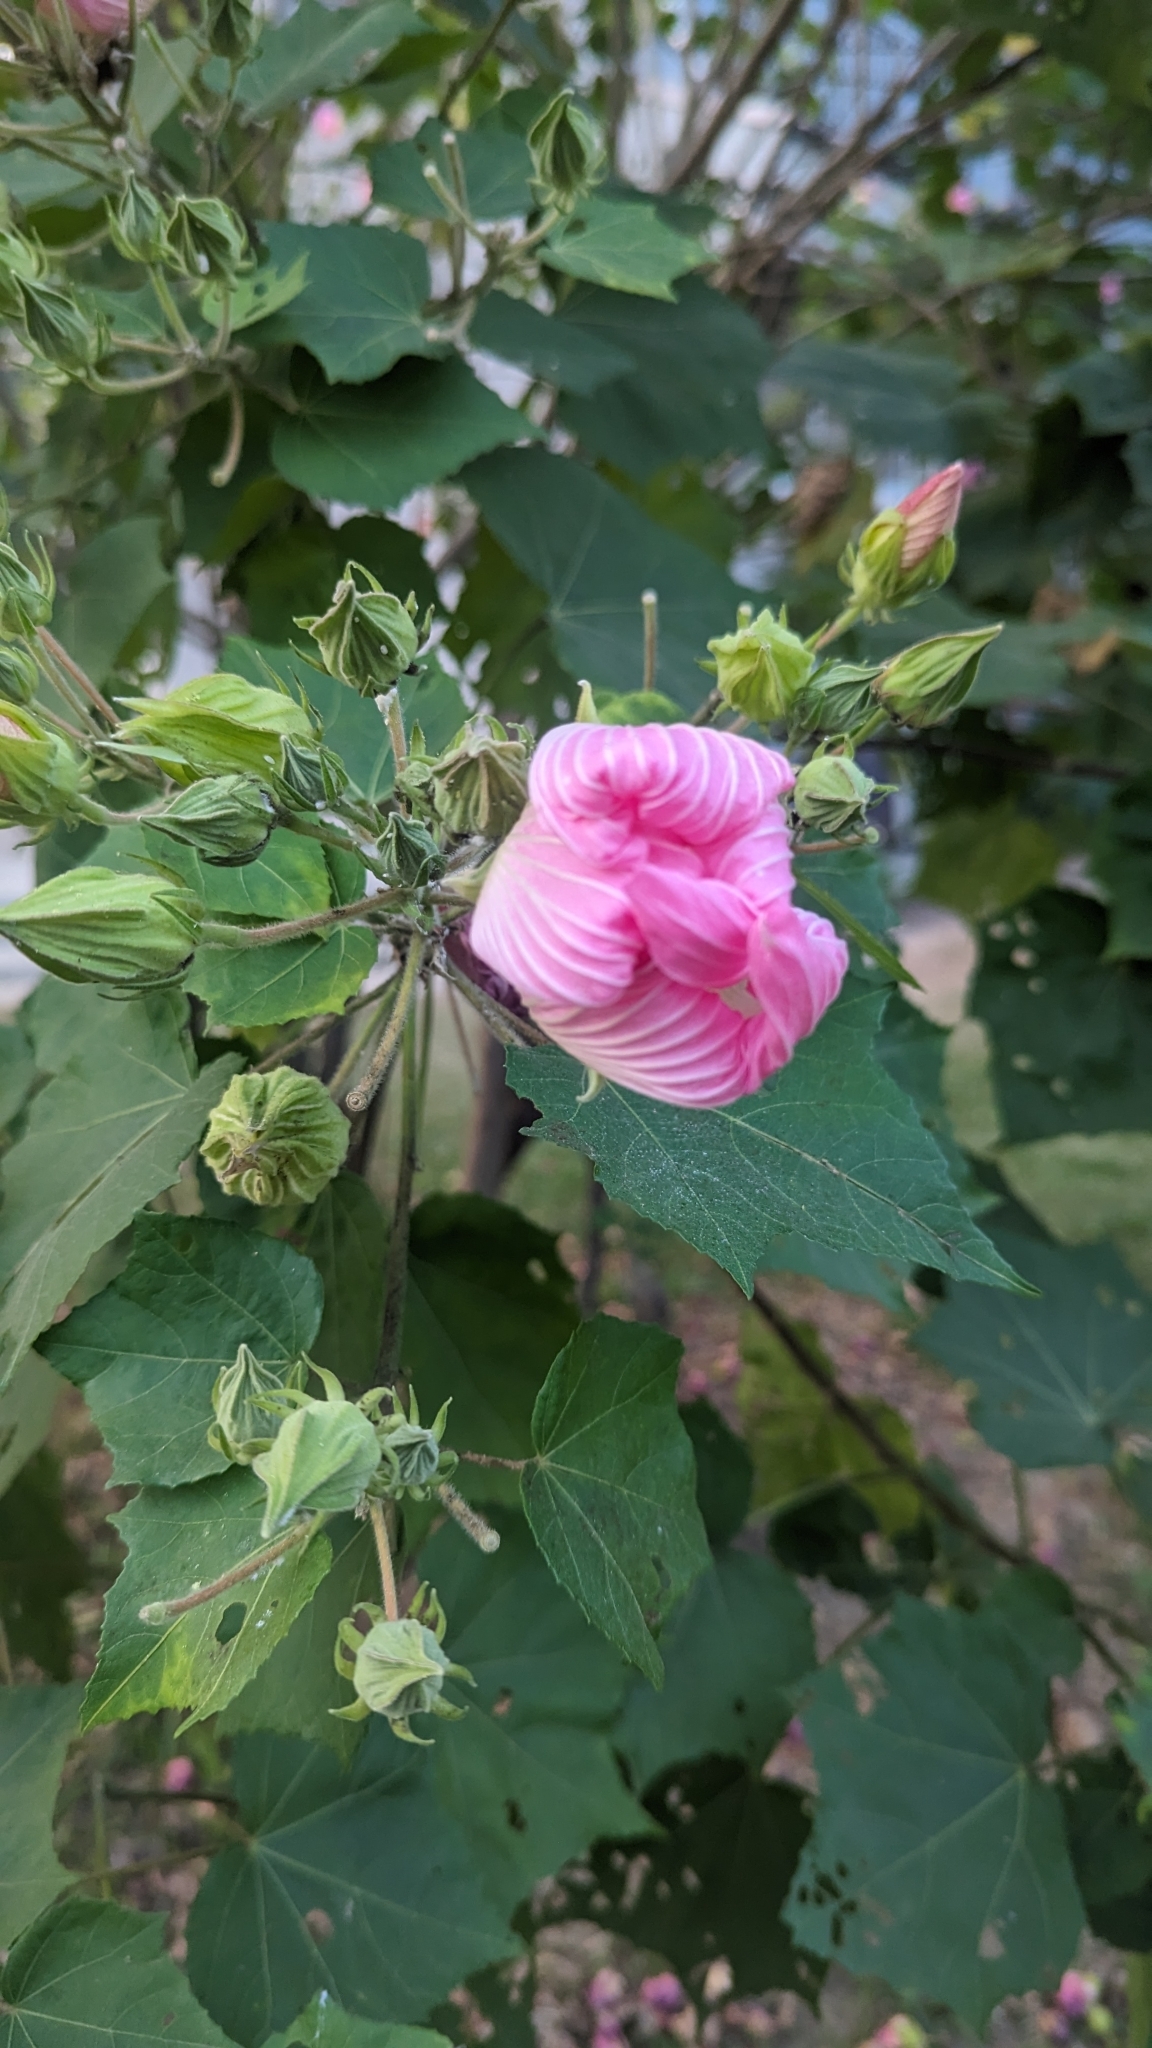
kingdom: Plantae
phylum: Tracheophyta
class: Magnoliopsida
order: Malvales
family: Malvaceae
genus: Hibiscus
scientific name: Hibiscus mutabilis
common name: Dixie rosemallow
